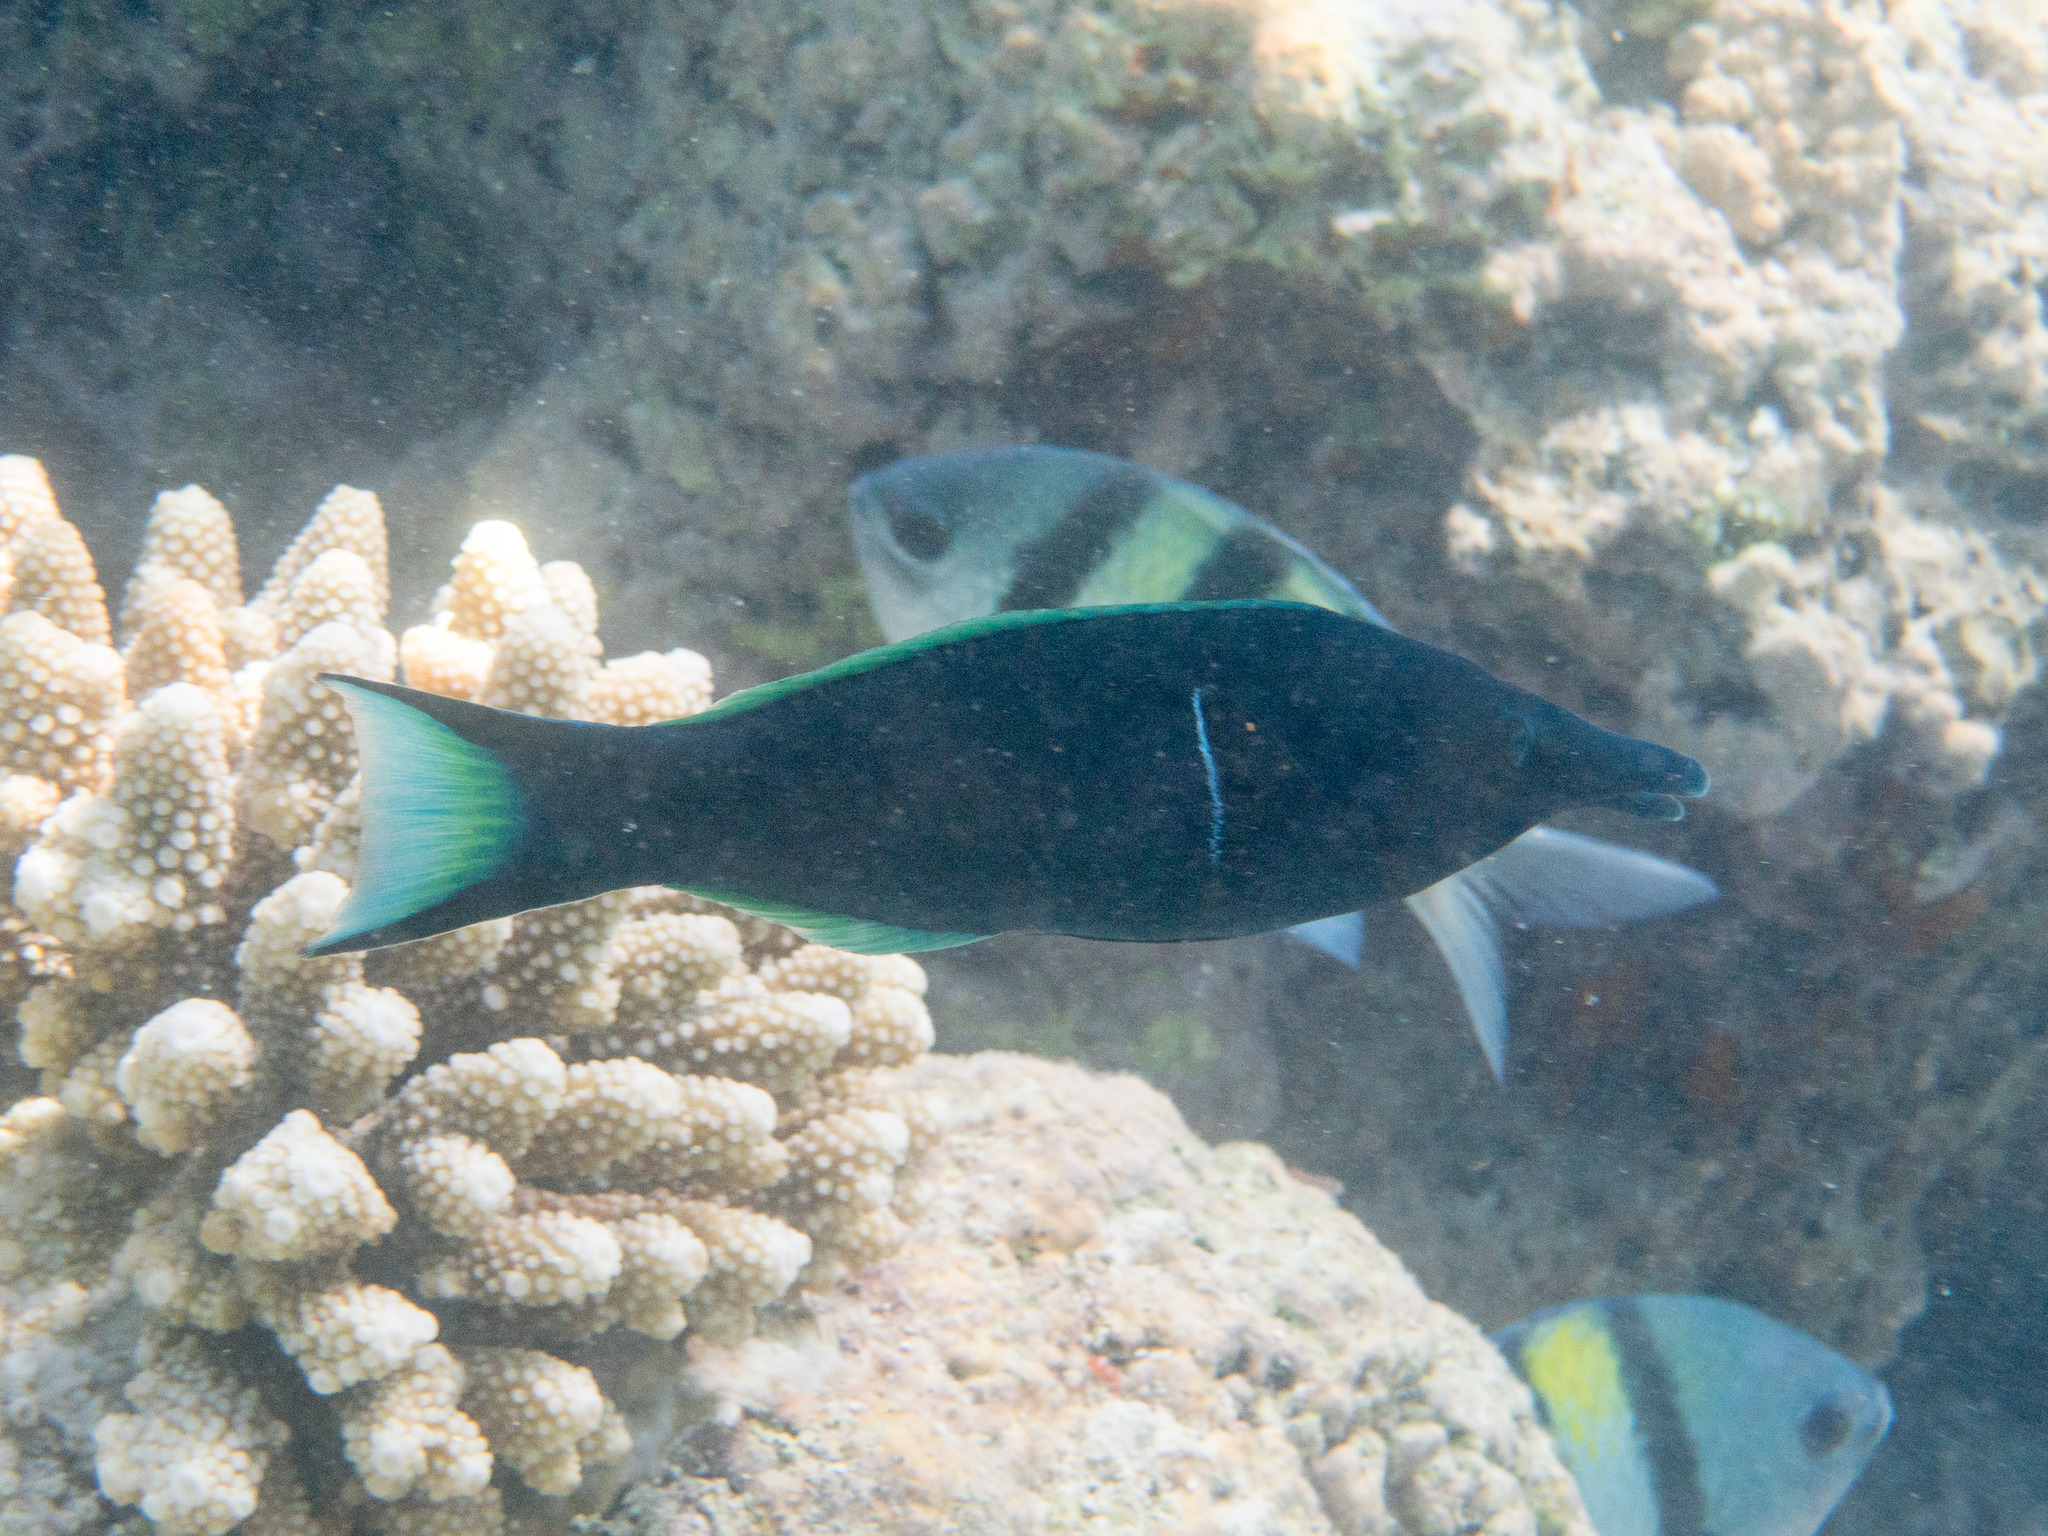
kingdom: Animalia
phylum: Chordata
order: Perciformes
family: Labridae
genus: Gomphosus
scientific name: Gomphosus caeruleus
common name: Bird wrasse
